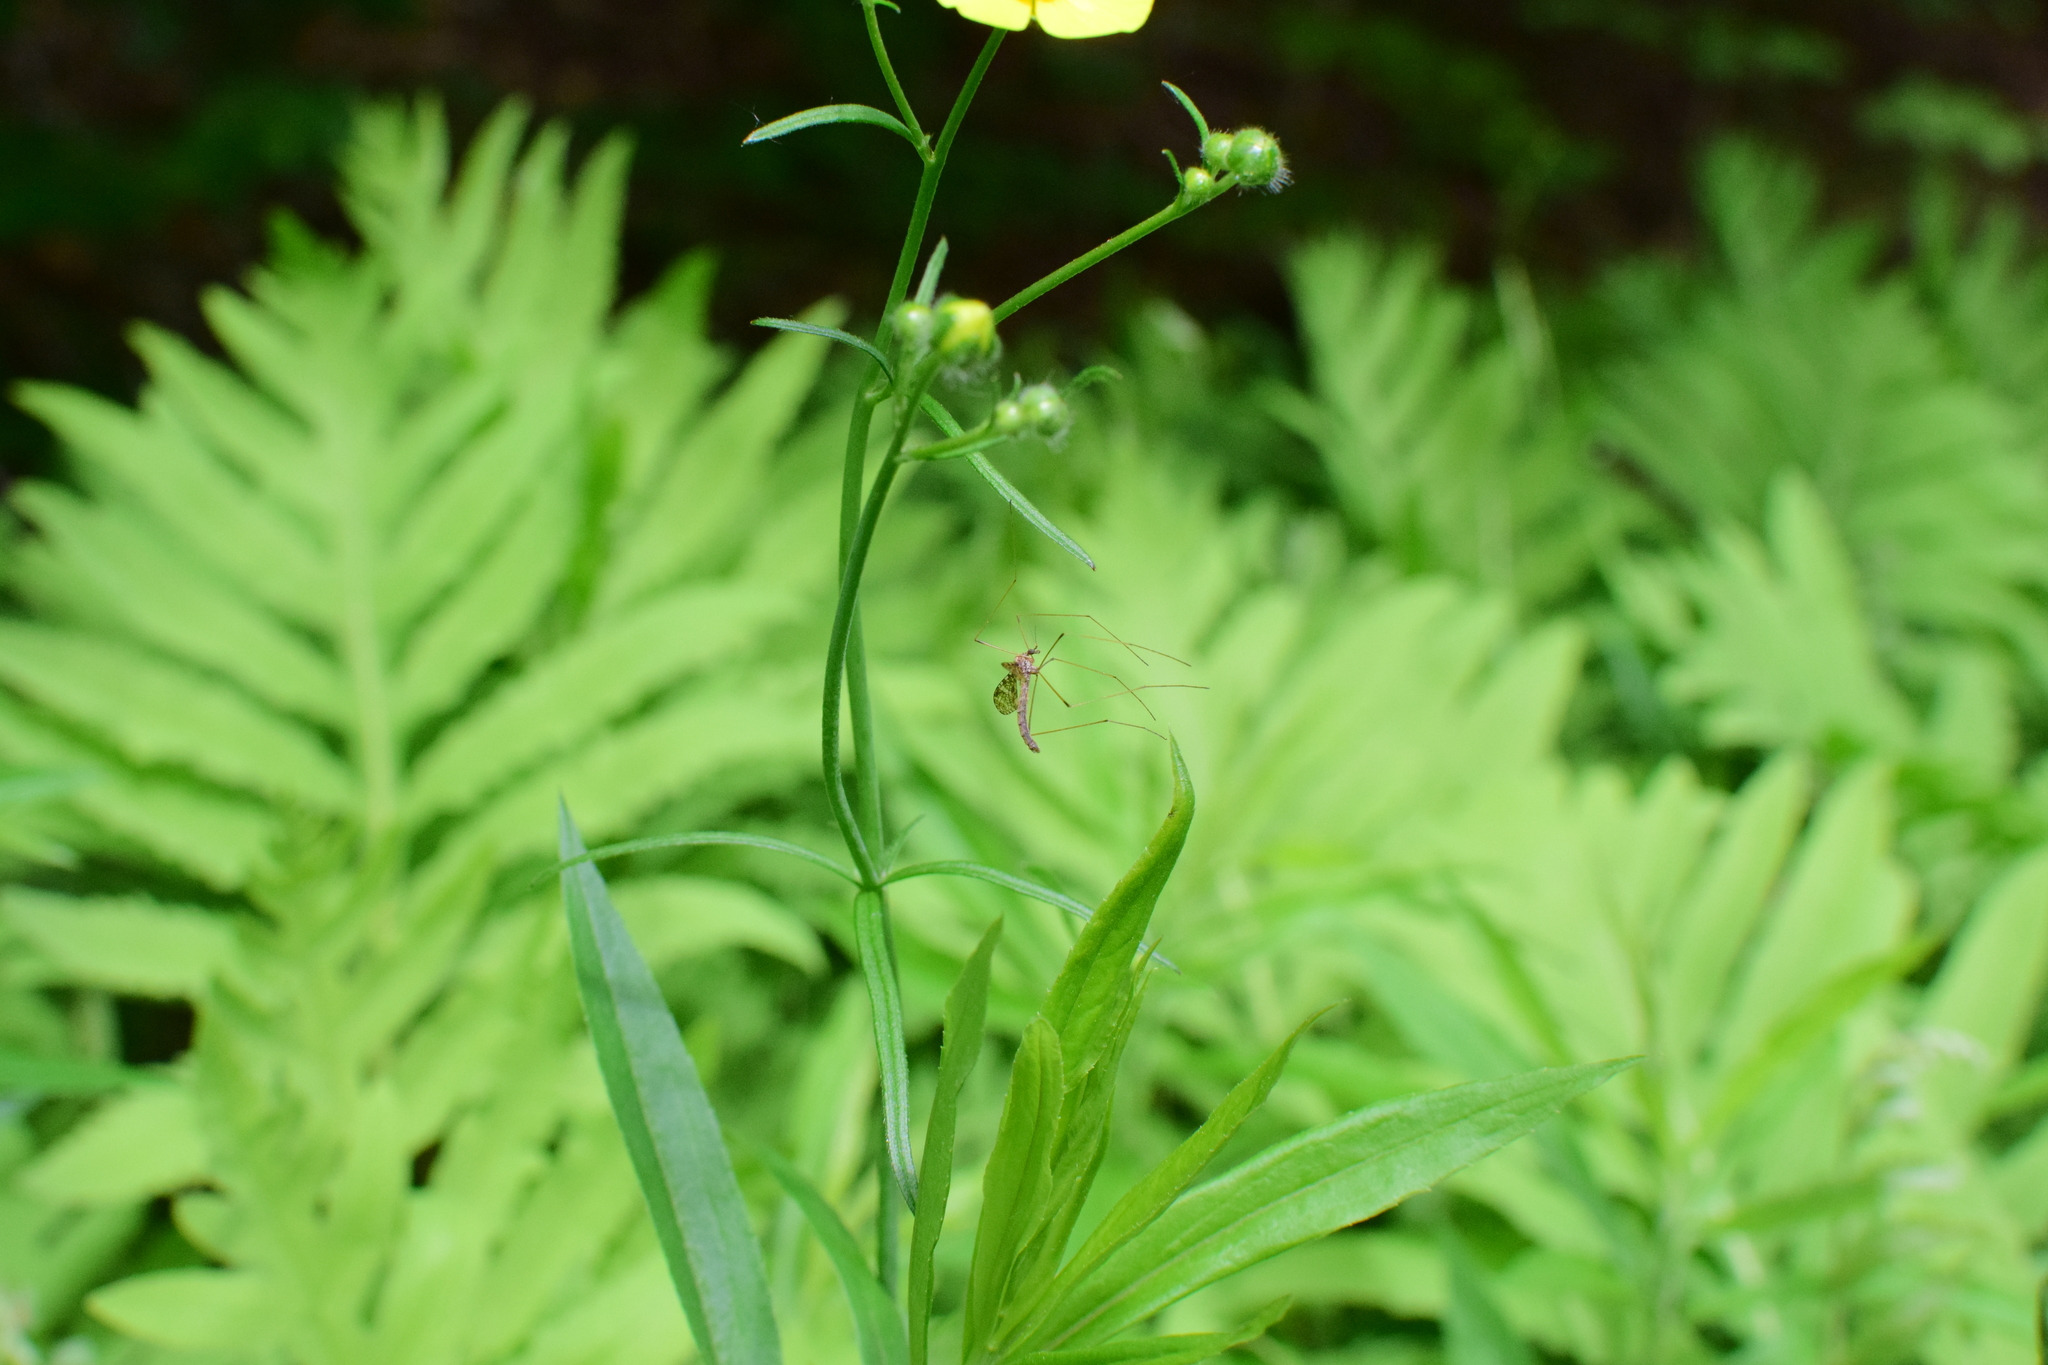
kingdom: Animalia
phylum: Arthropoda
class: Insecta
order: Diptera
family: Limoniidae
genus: Epiphragma
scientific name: Epiphragma fasciapenne
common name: Band-winged crane fly
